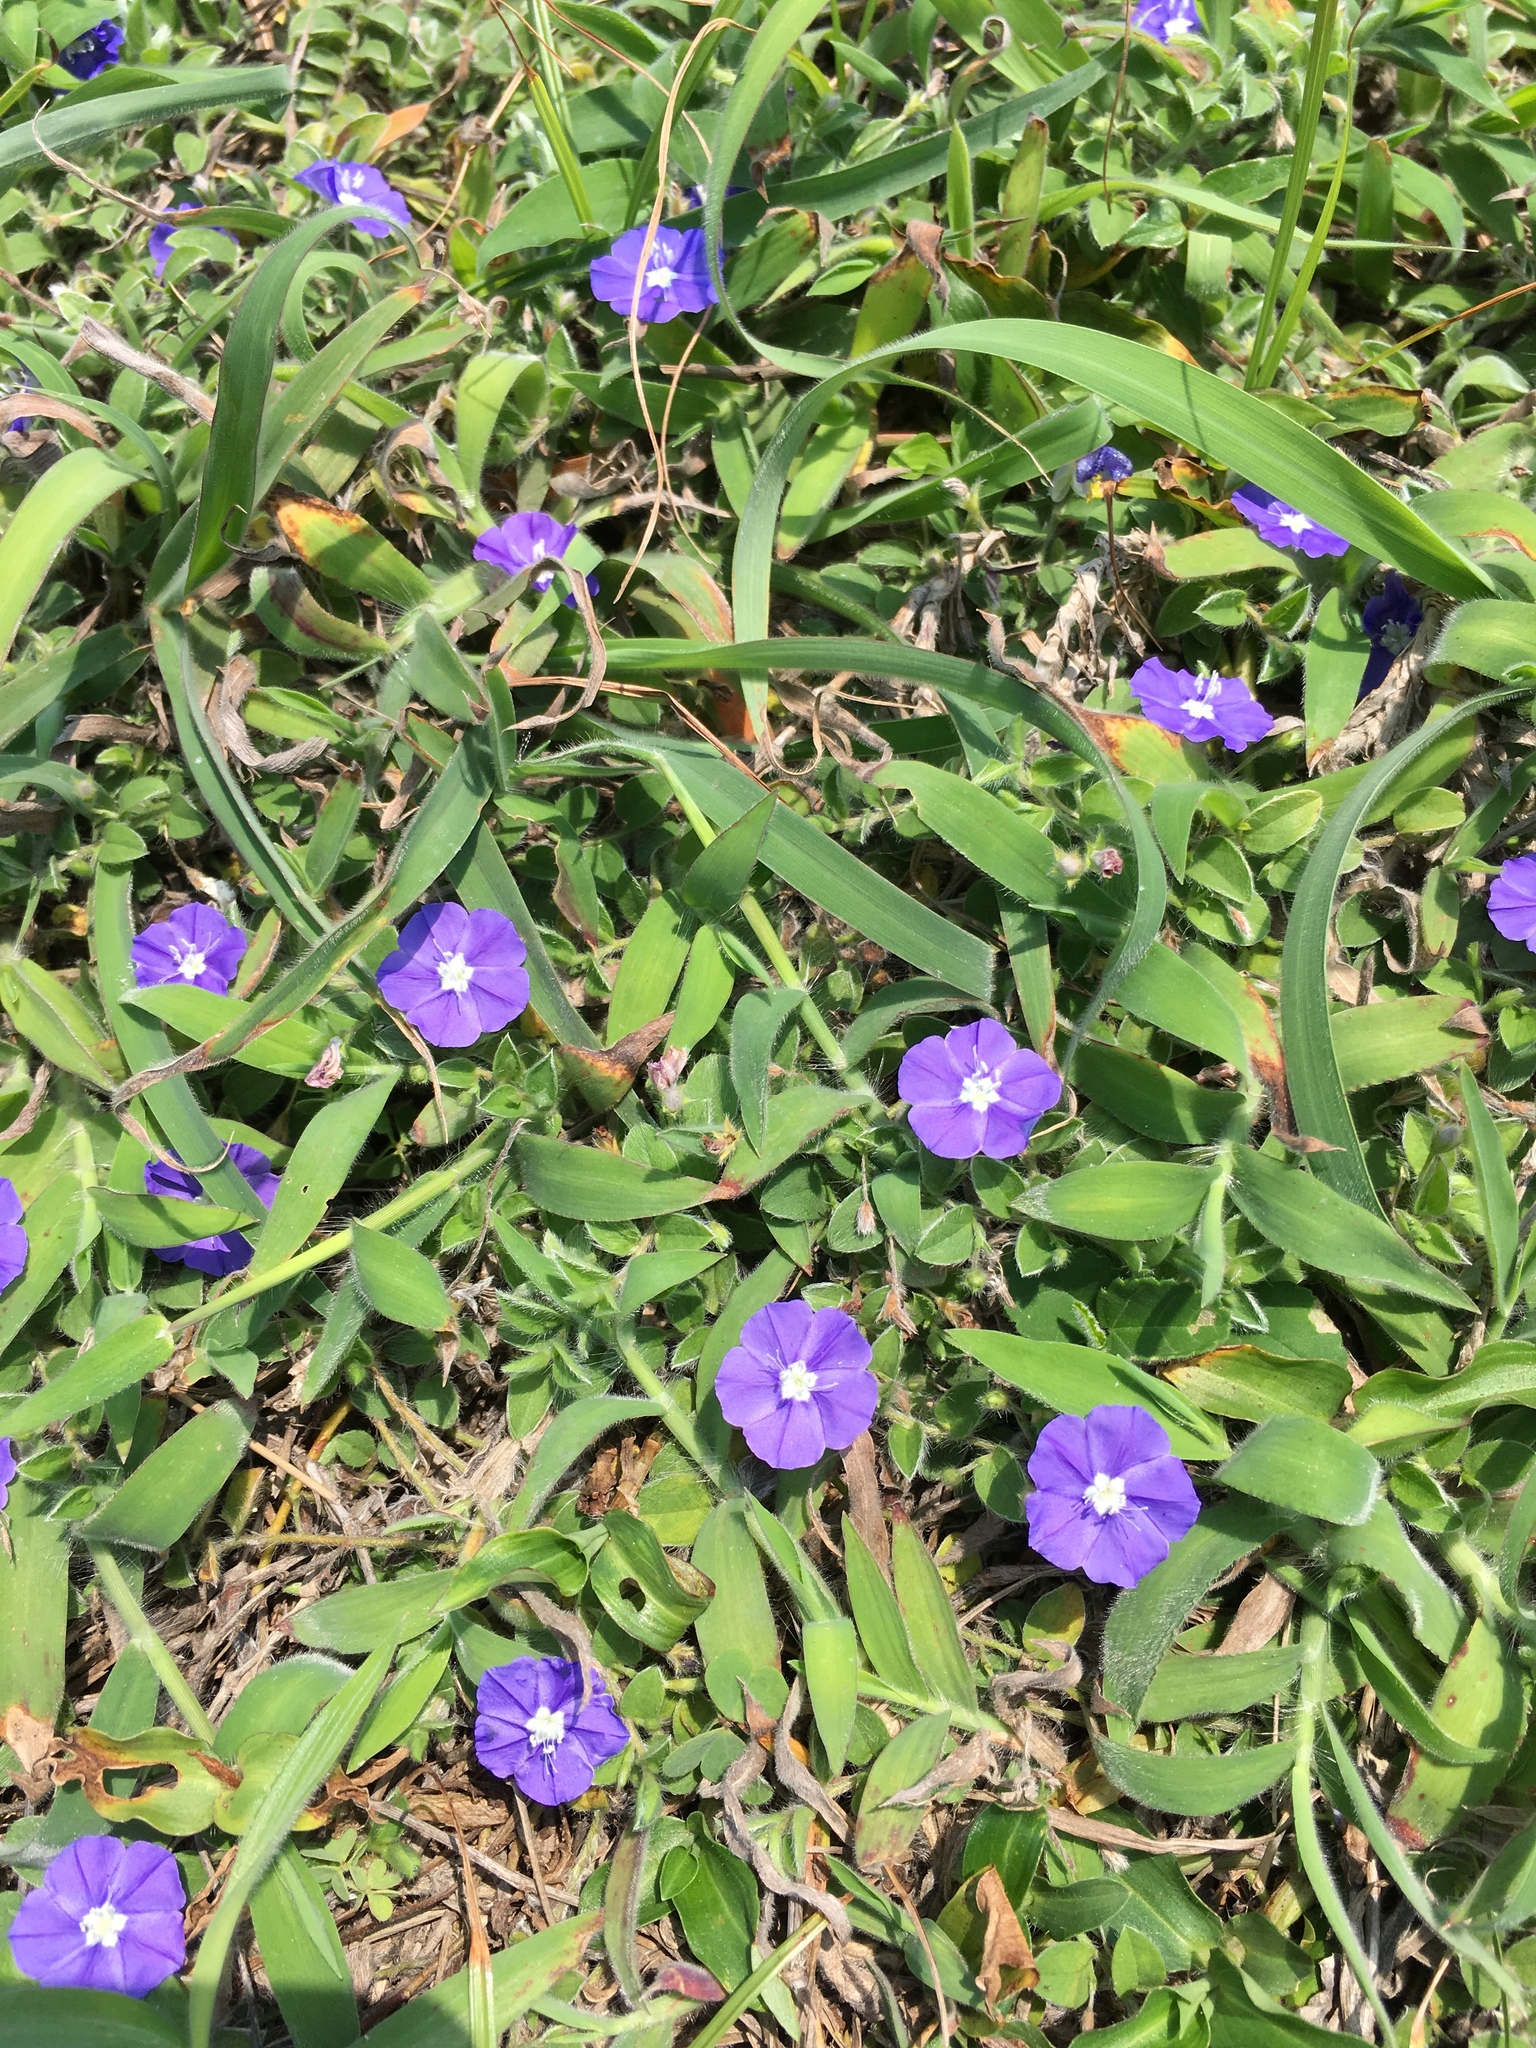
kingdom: Plantae
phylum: Tracheophyta
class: Magnoliopsida
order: Solanales
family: Convolvulaceae
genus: Evolvulus
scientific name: Evolvulus alsinoides
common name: Slender dwarf morning-glory
